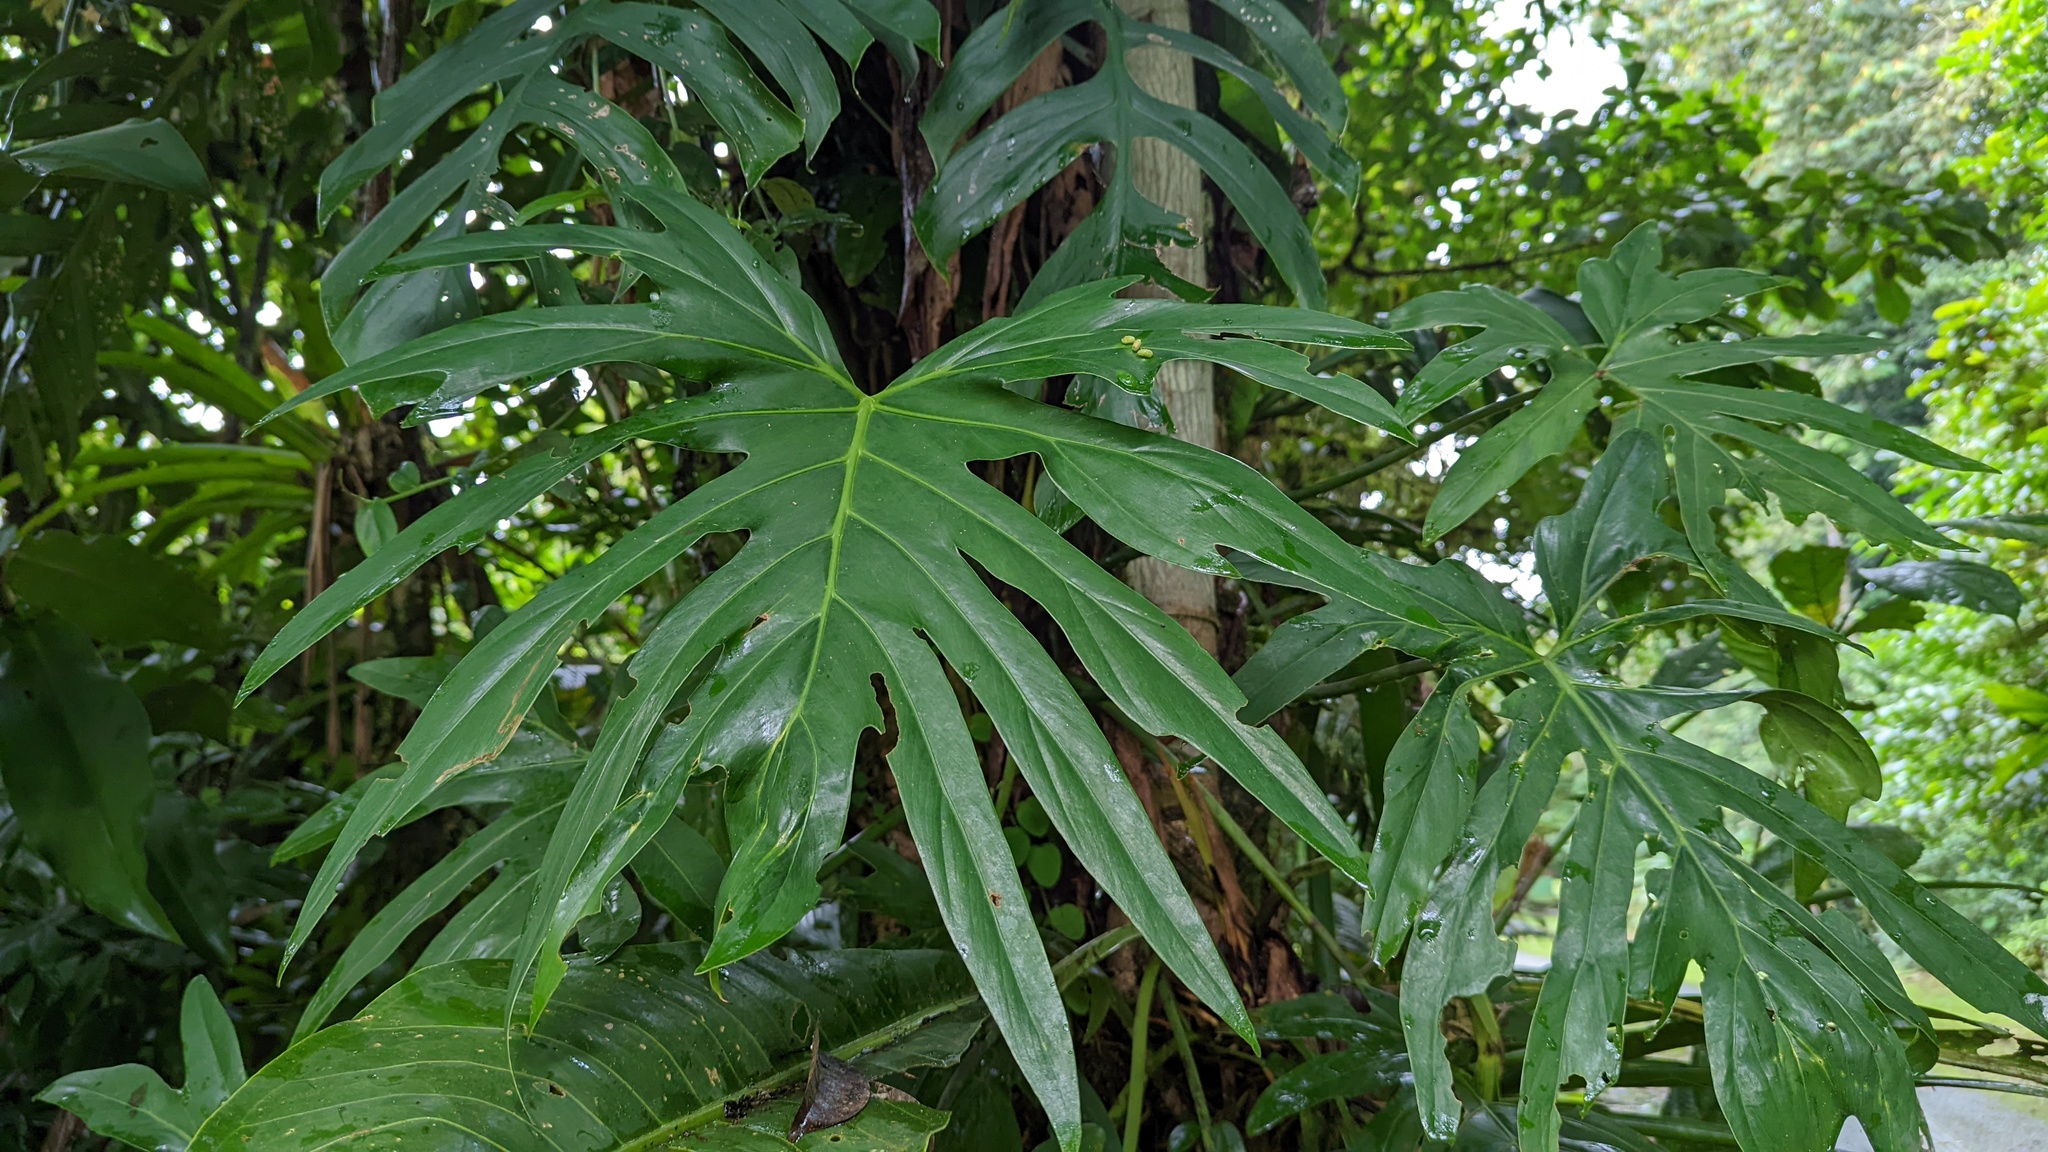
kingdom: Plantae
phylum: Tracheophyta
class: Liliopsida
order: Alismatales
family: Araceae
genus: Philodendron
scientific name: Philodendron radiatum
